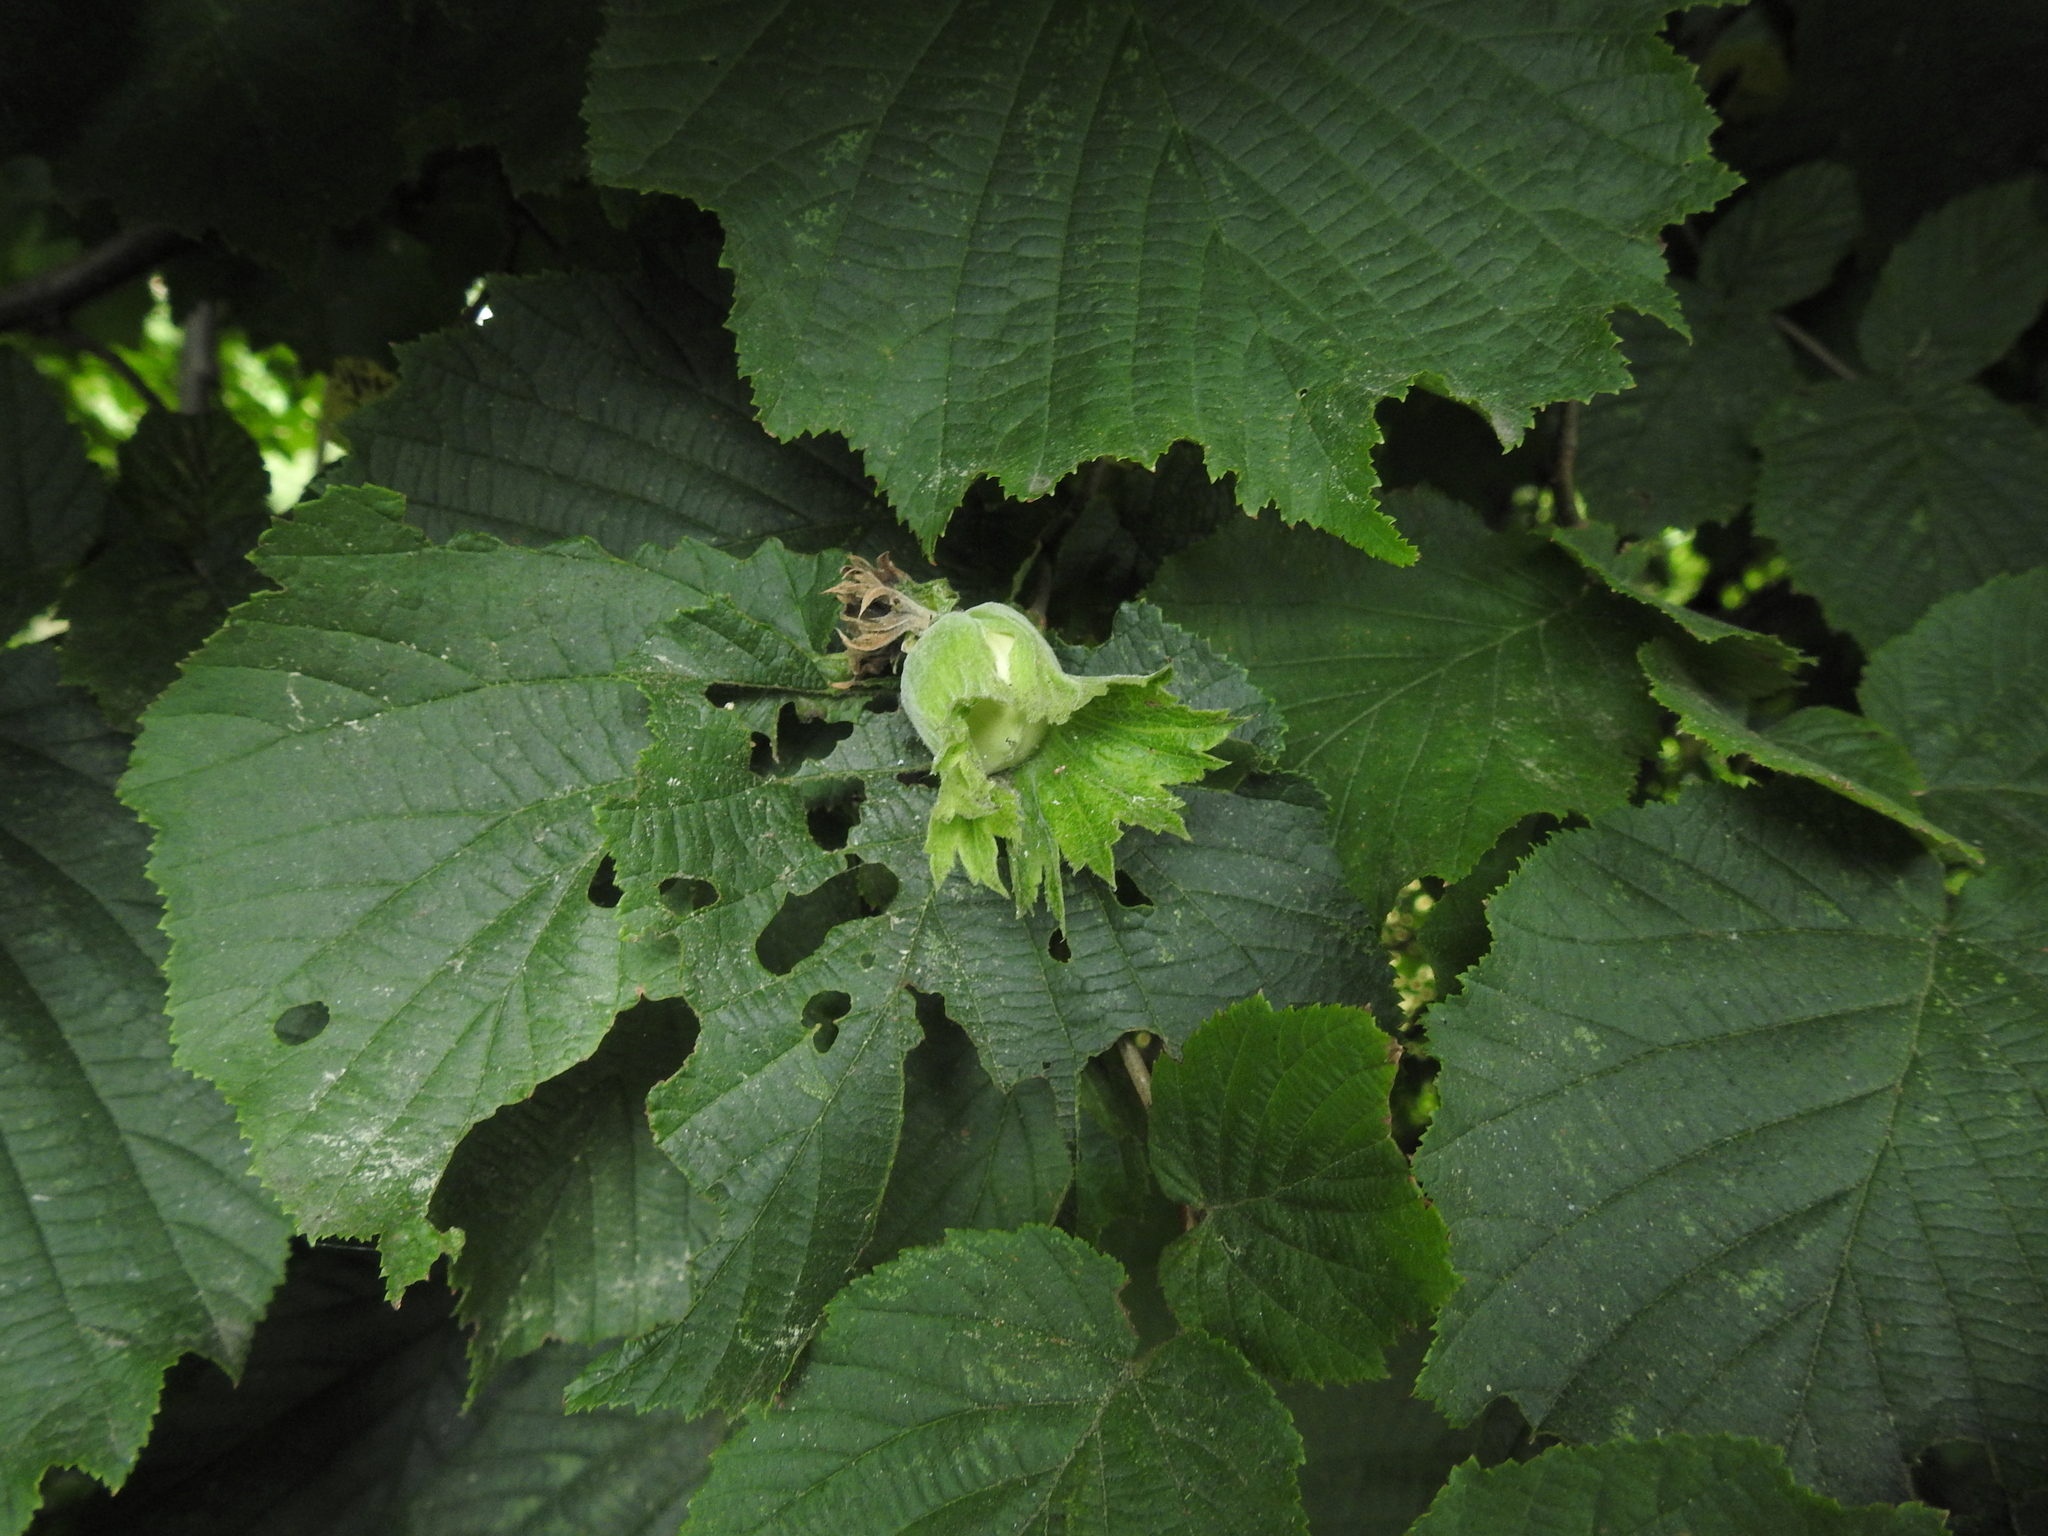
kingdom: Plantae
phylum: Tracheophyta
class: Magnoliopsida
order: Fagales
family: Betulaceae
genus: Corylus
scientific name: Corylus avellana
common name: European hazel
